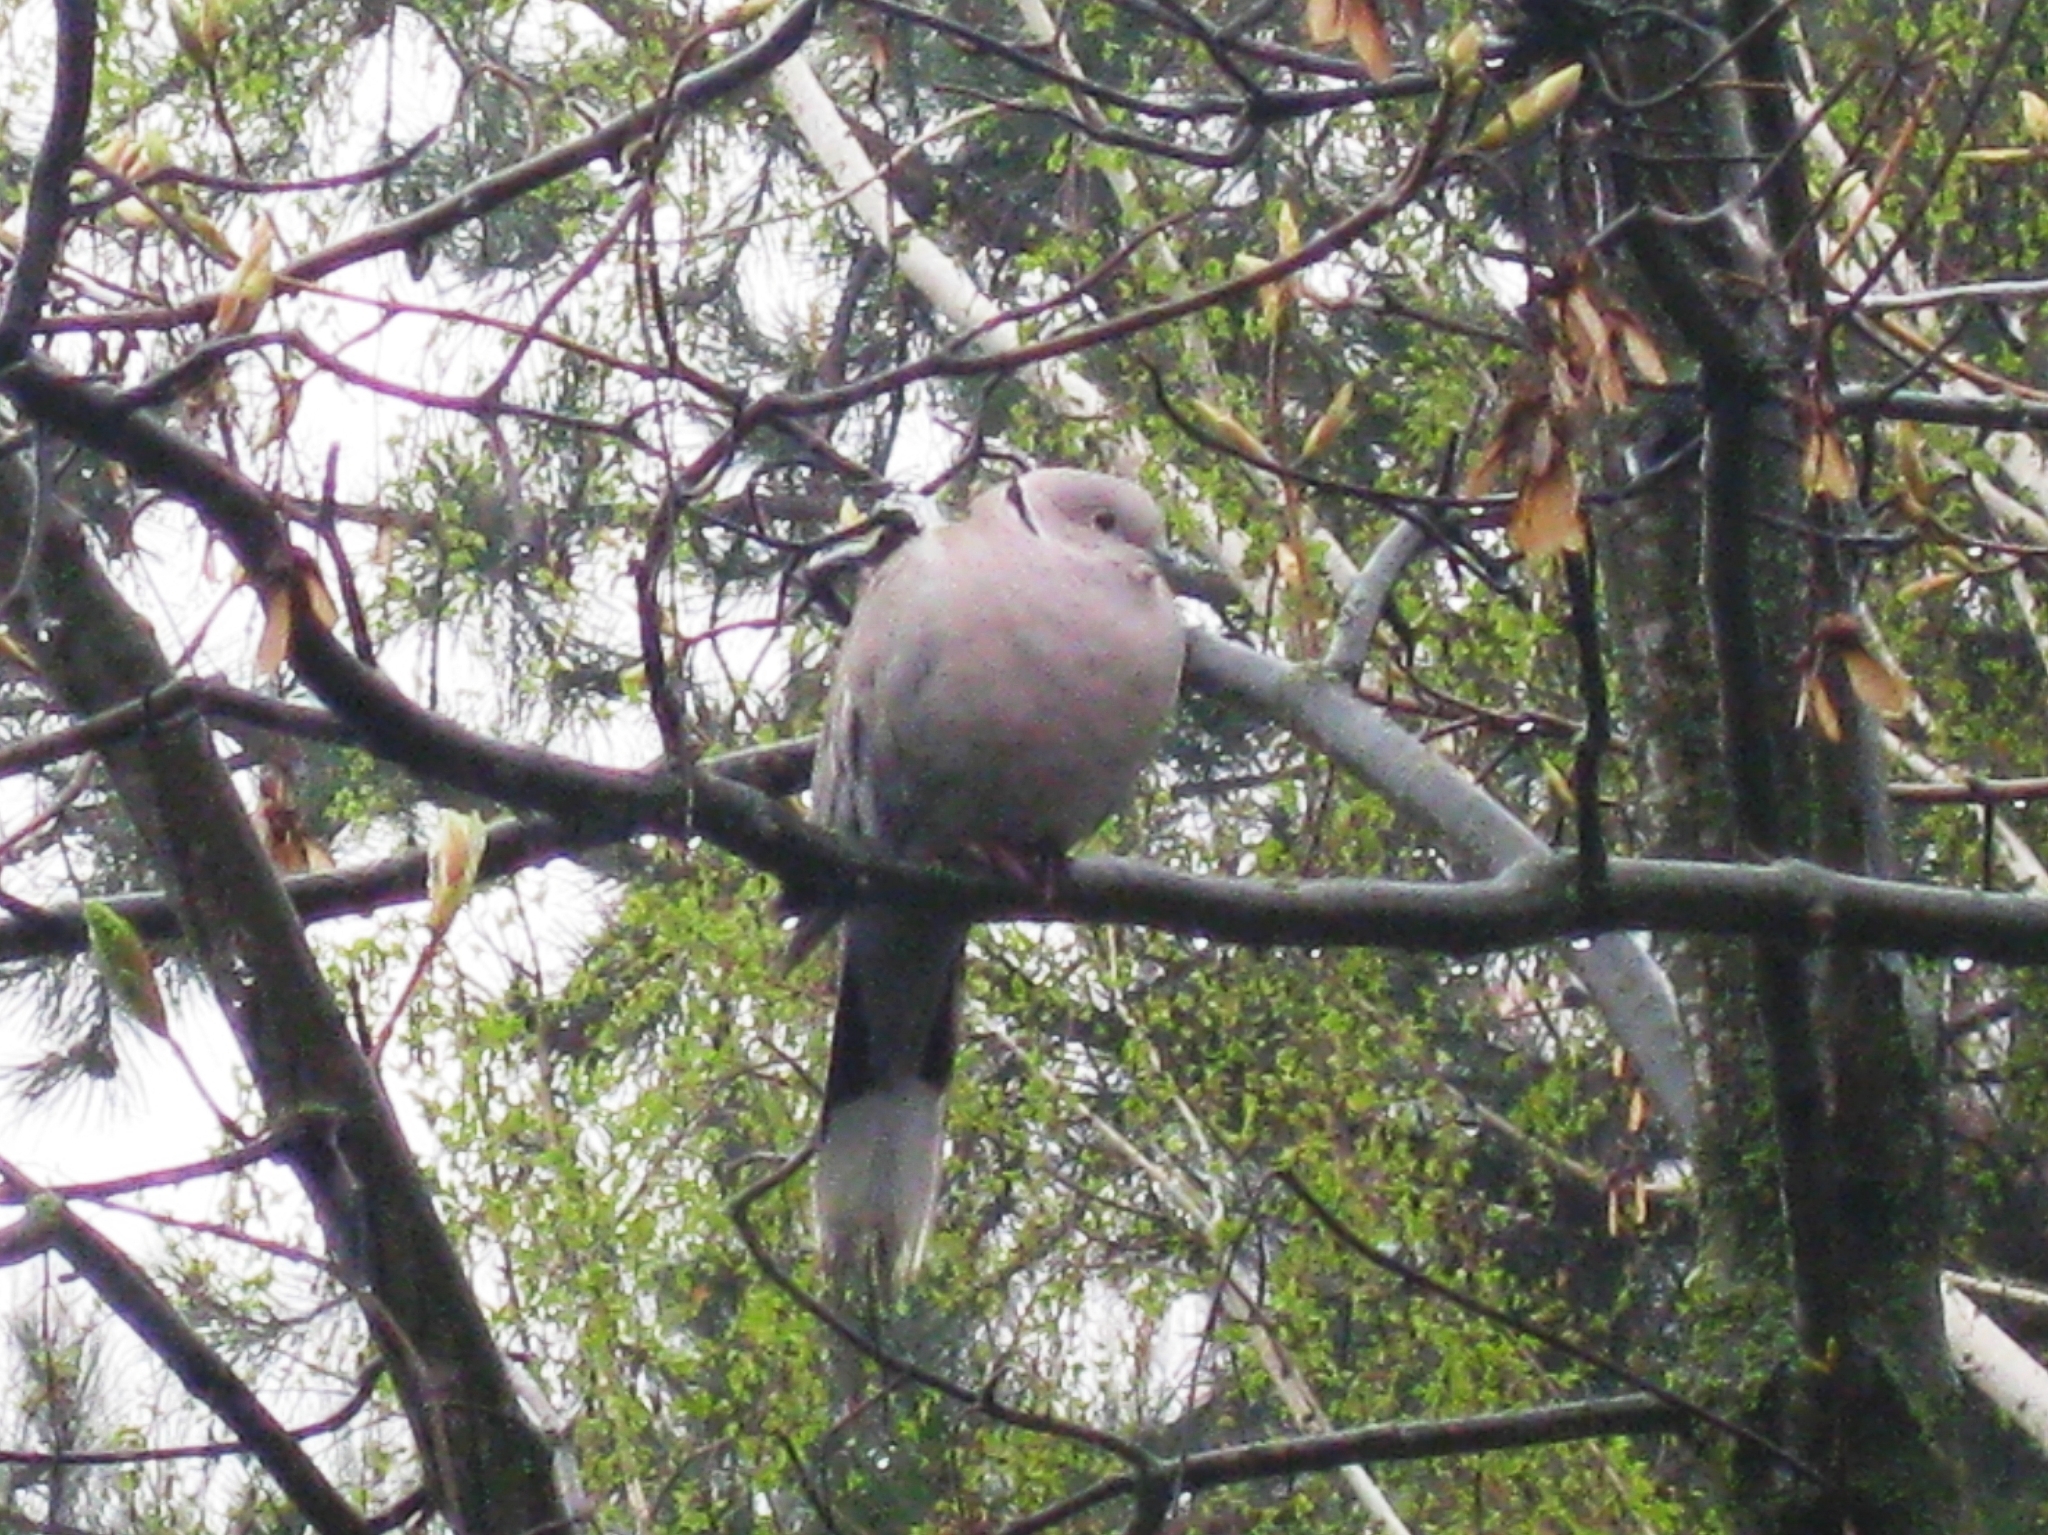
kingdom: Animalia
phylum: Chordata
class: Aves
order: Columbiformes
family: Columbidae
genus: Streptopelia
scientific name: Streptopelia decaocto
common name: Eurasian collared dove
